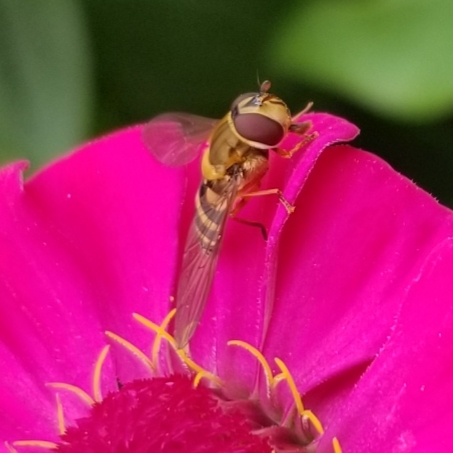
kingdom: Animalia
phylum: Arthropoda
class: Insecta
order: Diptera
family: Syrphidae
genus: Syrphus
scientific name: Syrphus
